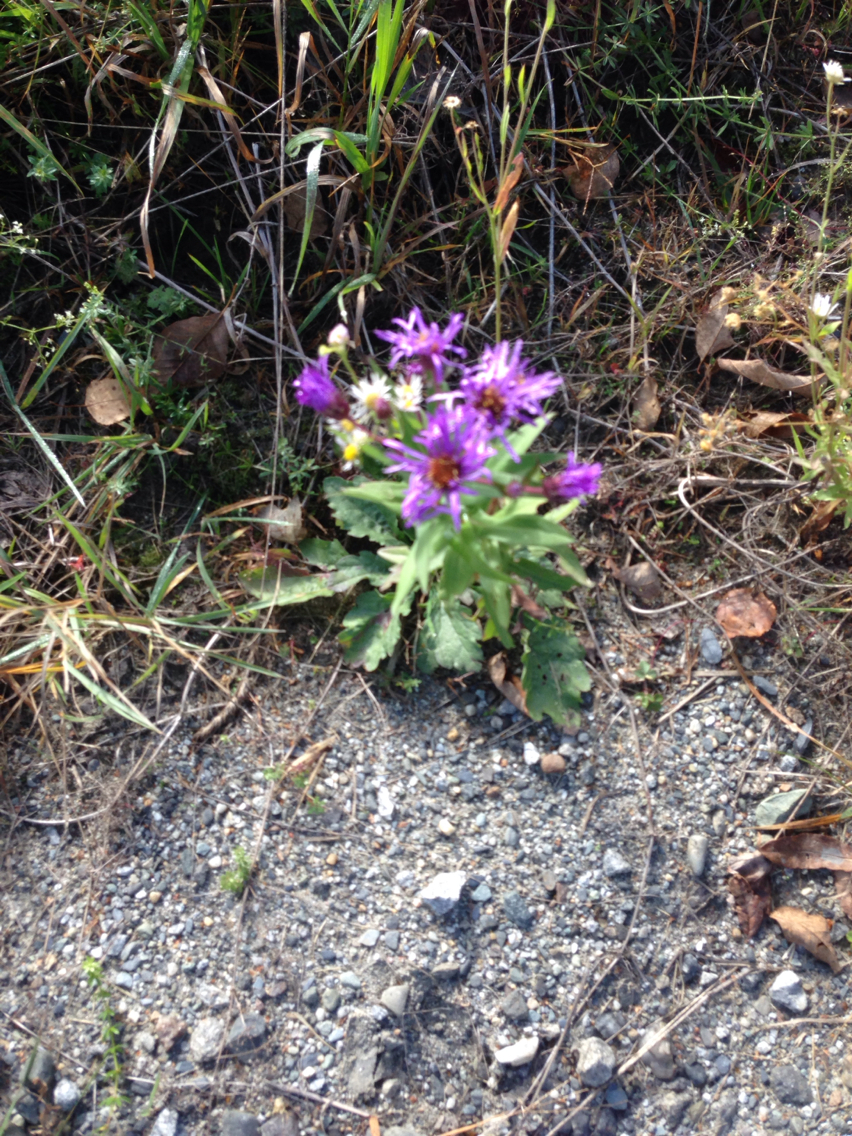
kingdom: Plantae
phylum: Tracheophyta
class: Magnoliopsida
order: Asterales
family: Asteraceae
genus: Symphyotrichum
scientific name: Symphyotrichum novae-angliae
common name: Michaelmas daisy
